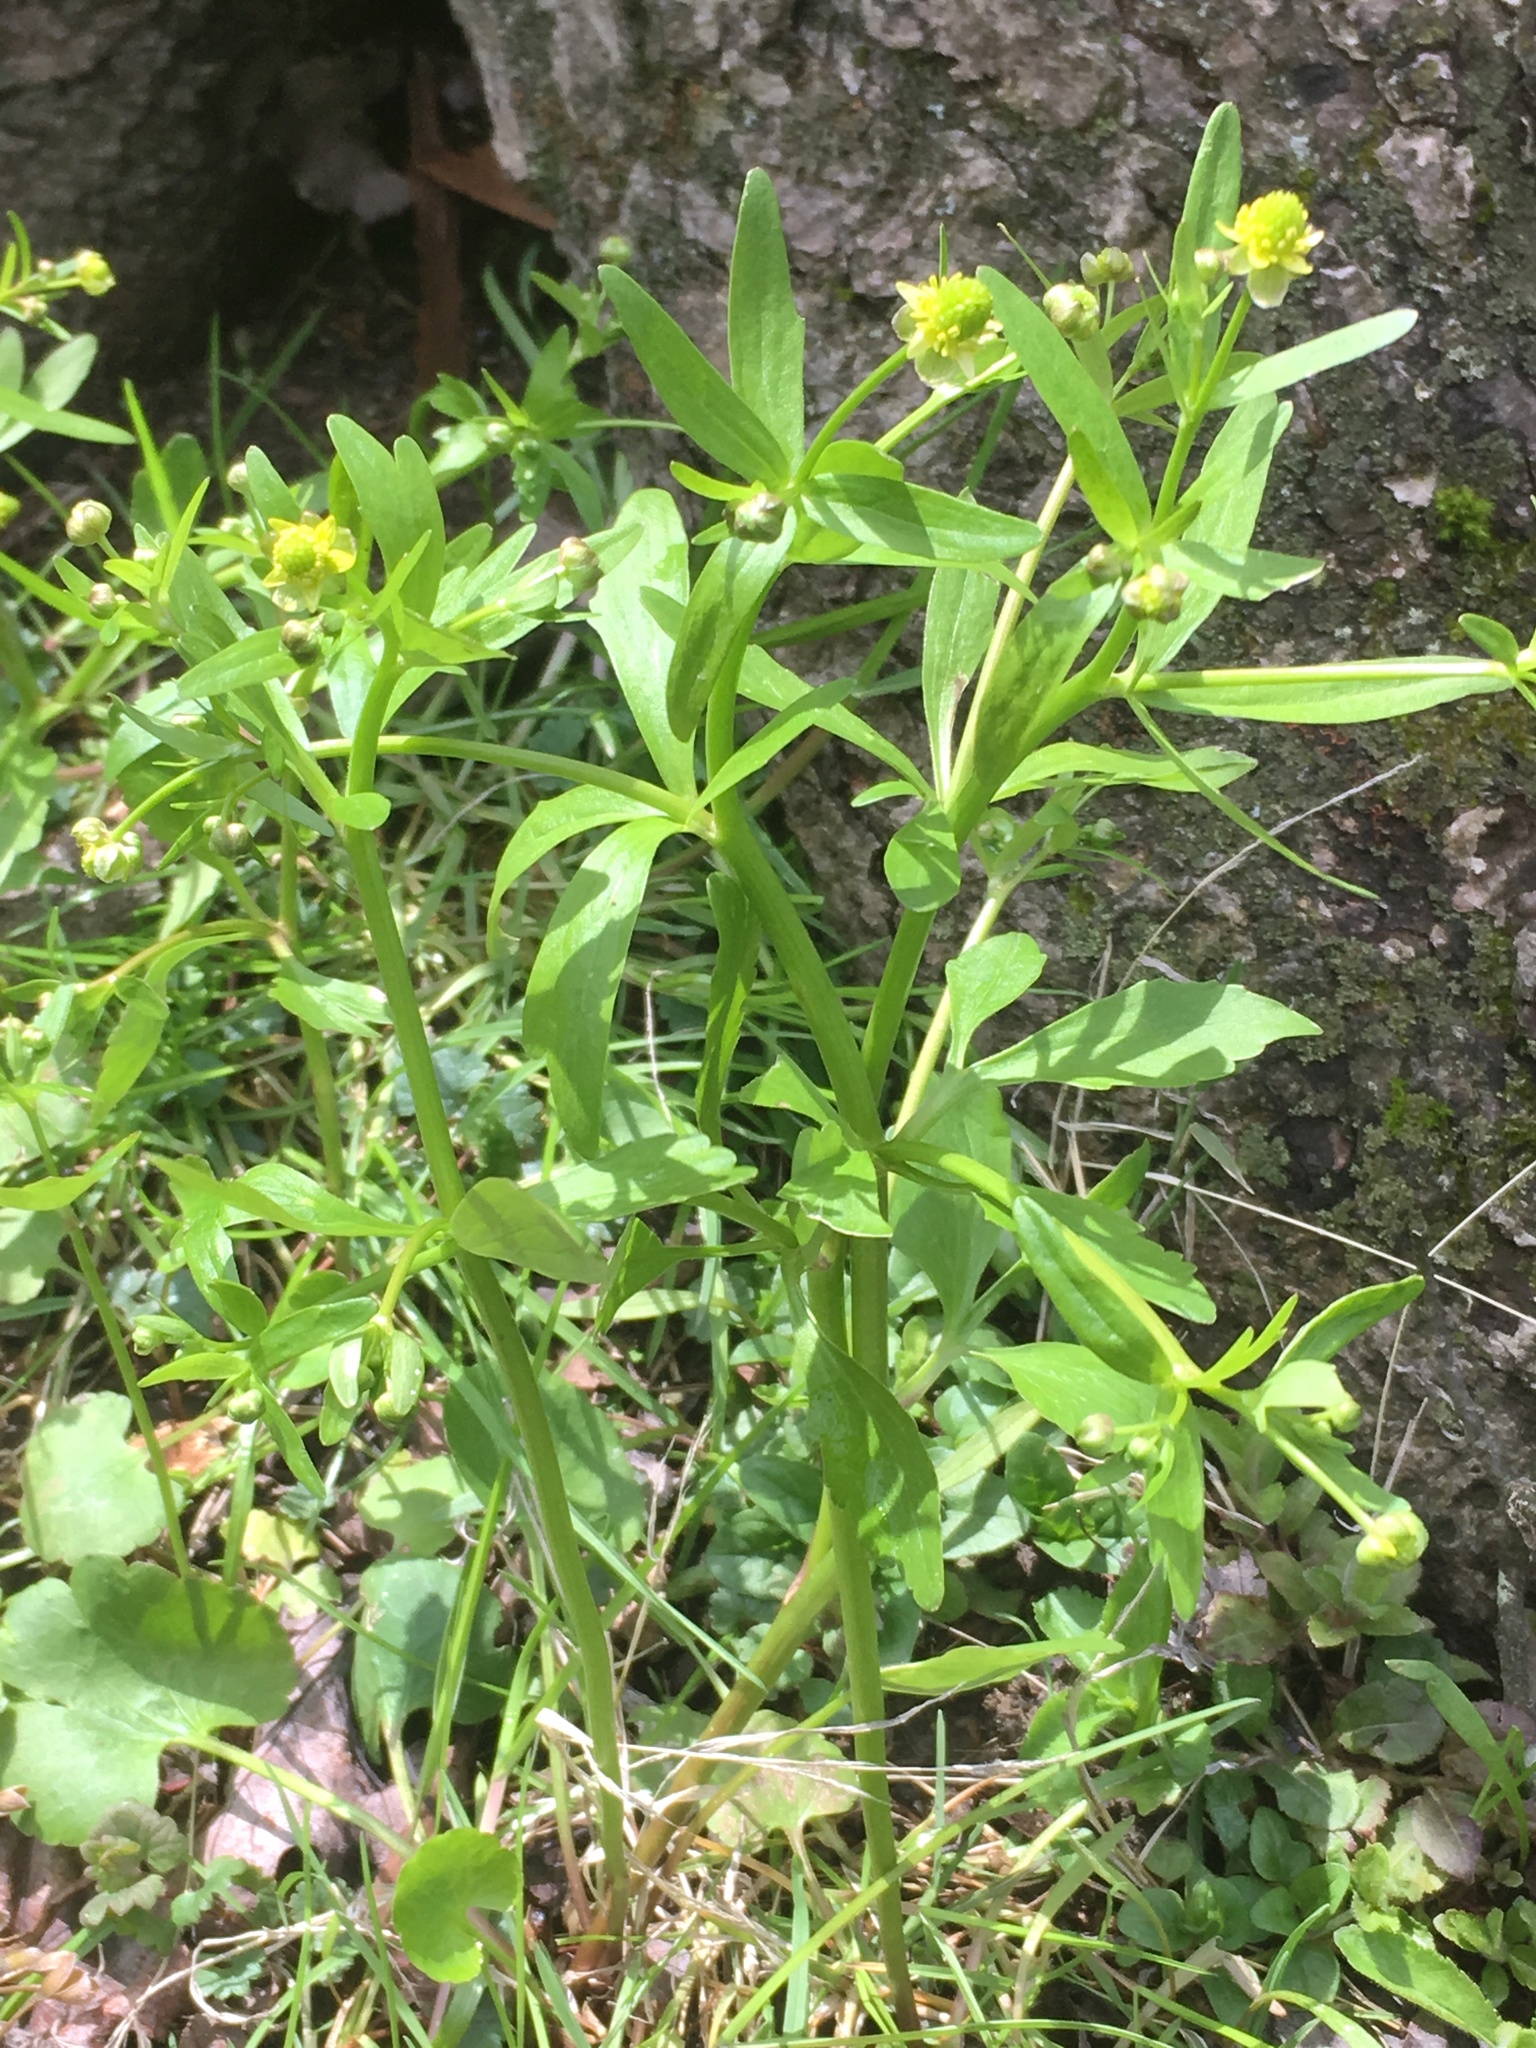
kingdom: Plantae
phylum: Tracheophyta
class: Magnoliopsida
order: Ranunculales
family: Ranunculaceae
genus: Ranunculus
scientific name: Ranunculus abortivus
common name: Early wood buttercup
